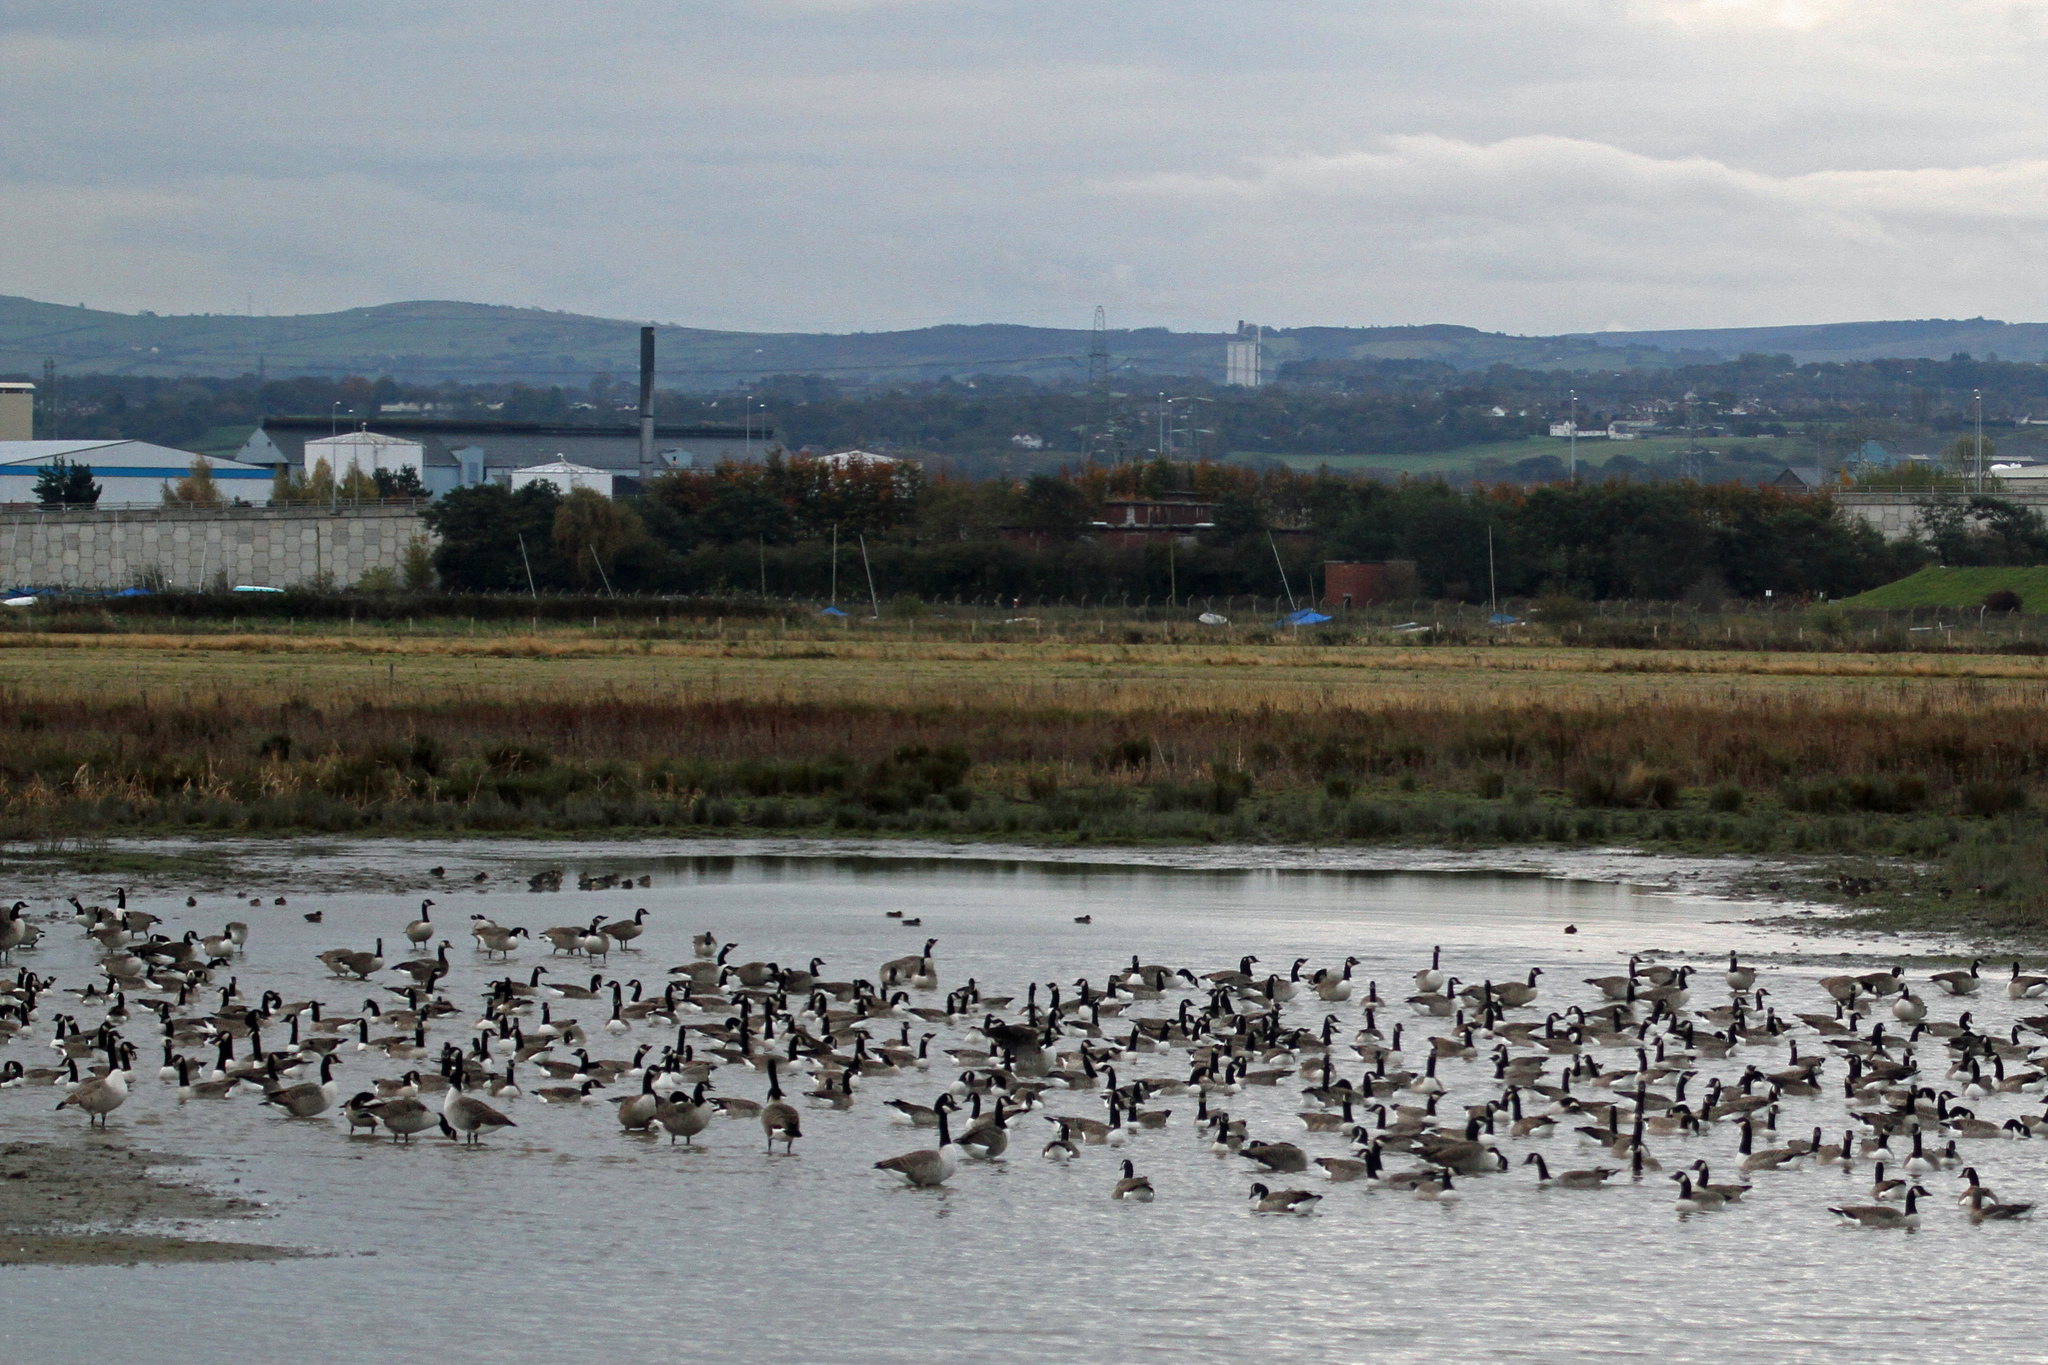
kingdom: Animalia
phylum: Chordata
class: Aves
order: Anseriformes
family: Anatidae
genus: Branta
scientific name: Branta canadensis
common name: Canada goose
